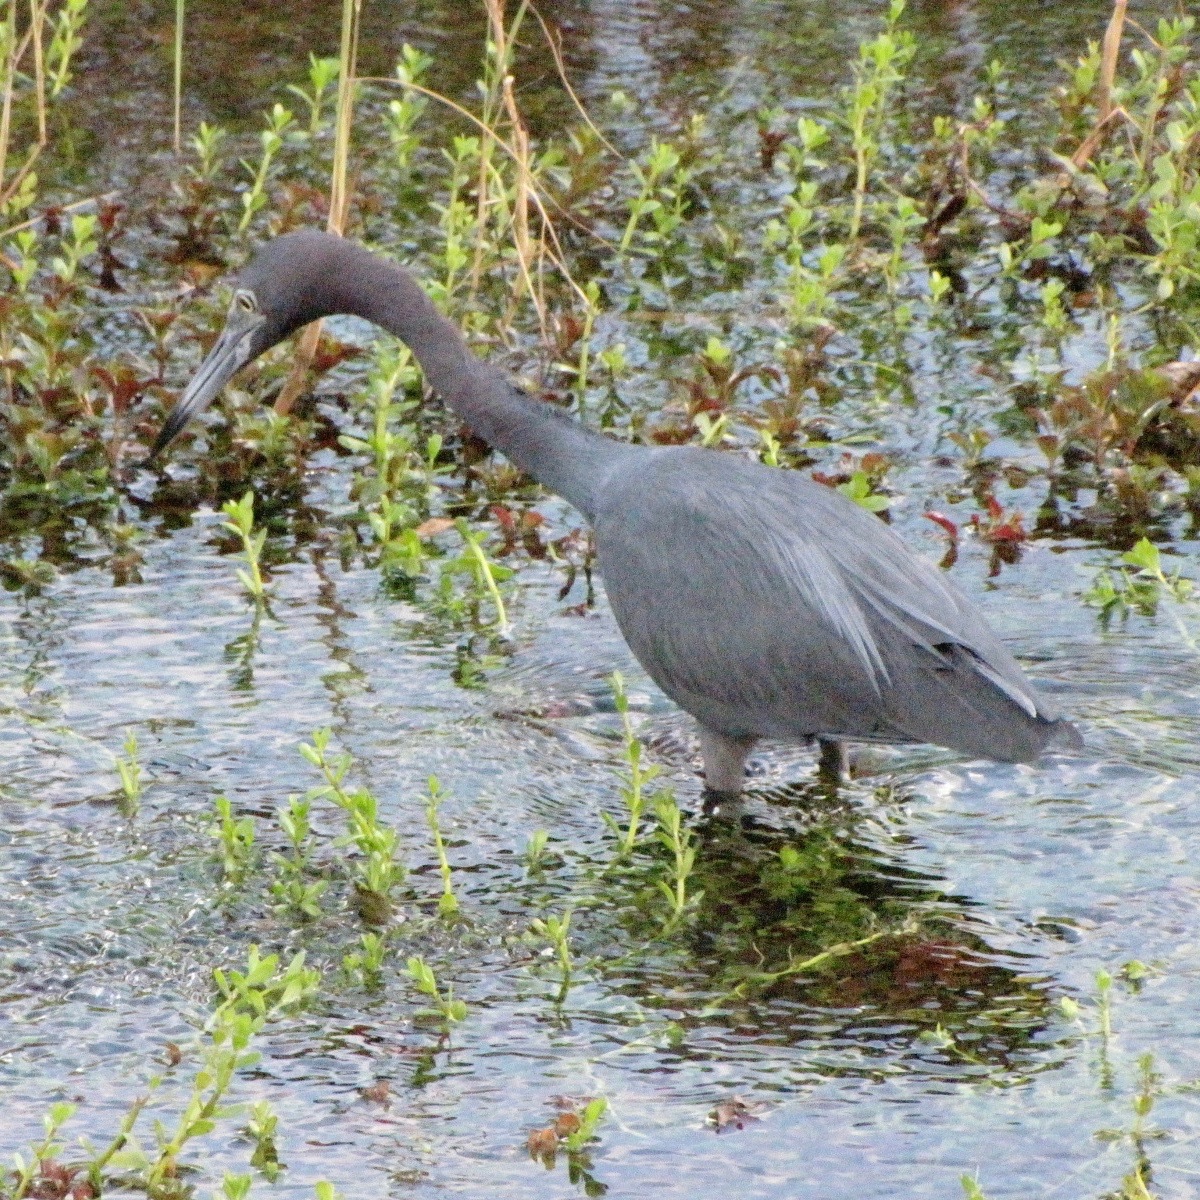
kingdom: Animalia
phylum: Chordata
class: Aves
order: Pelecaniformes
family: Ardeidae
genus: Egretta
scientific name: Egretta caerulea
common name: Little blue heron
